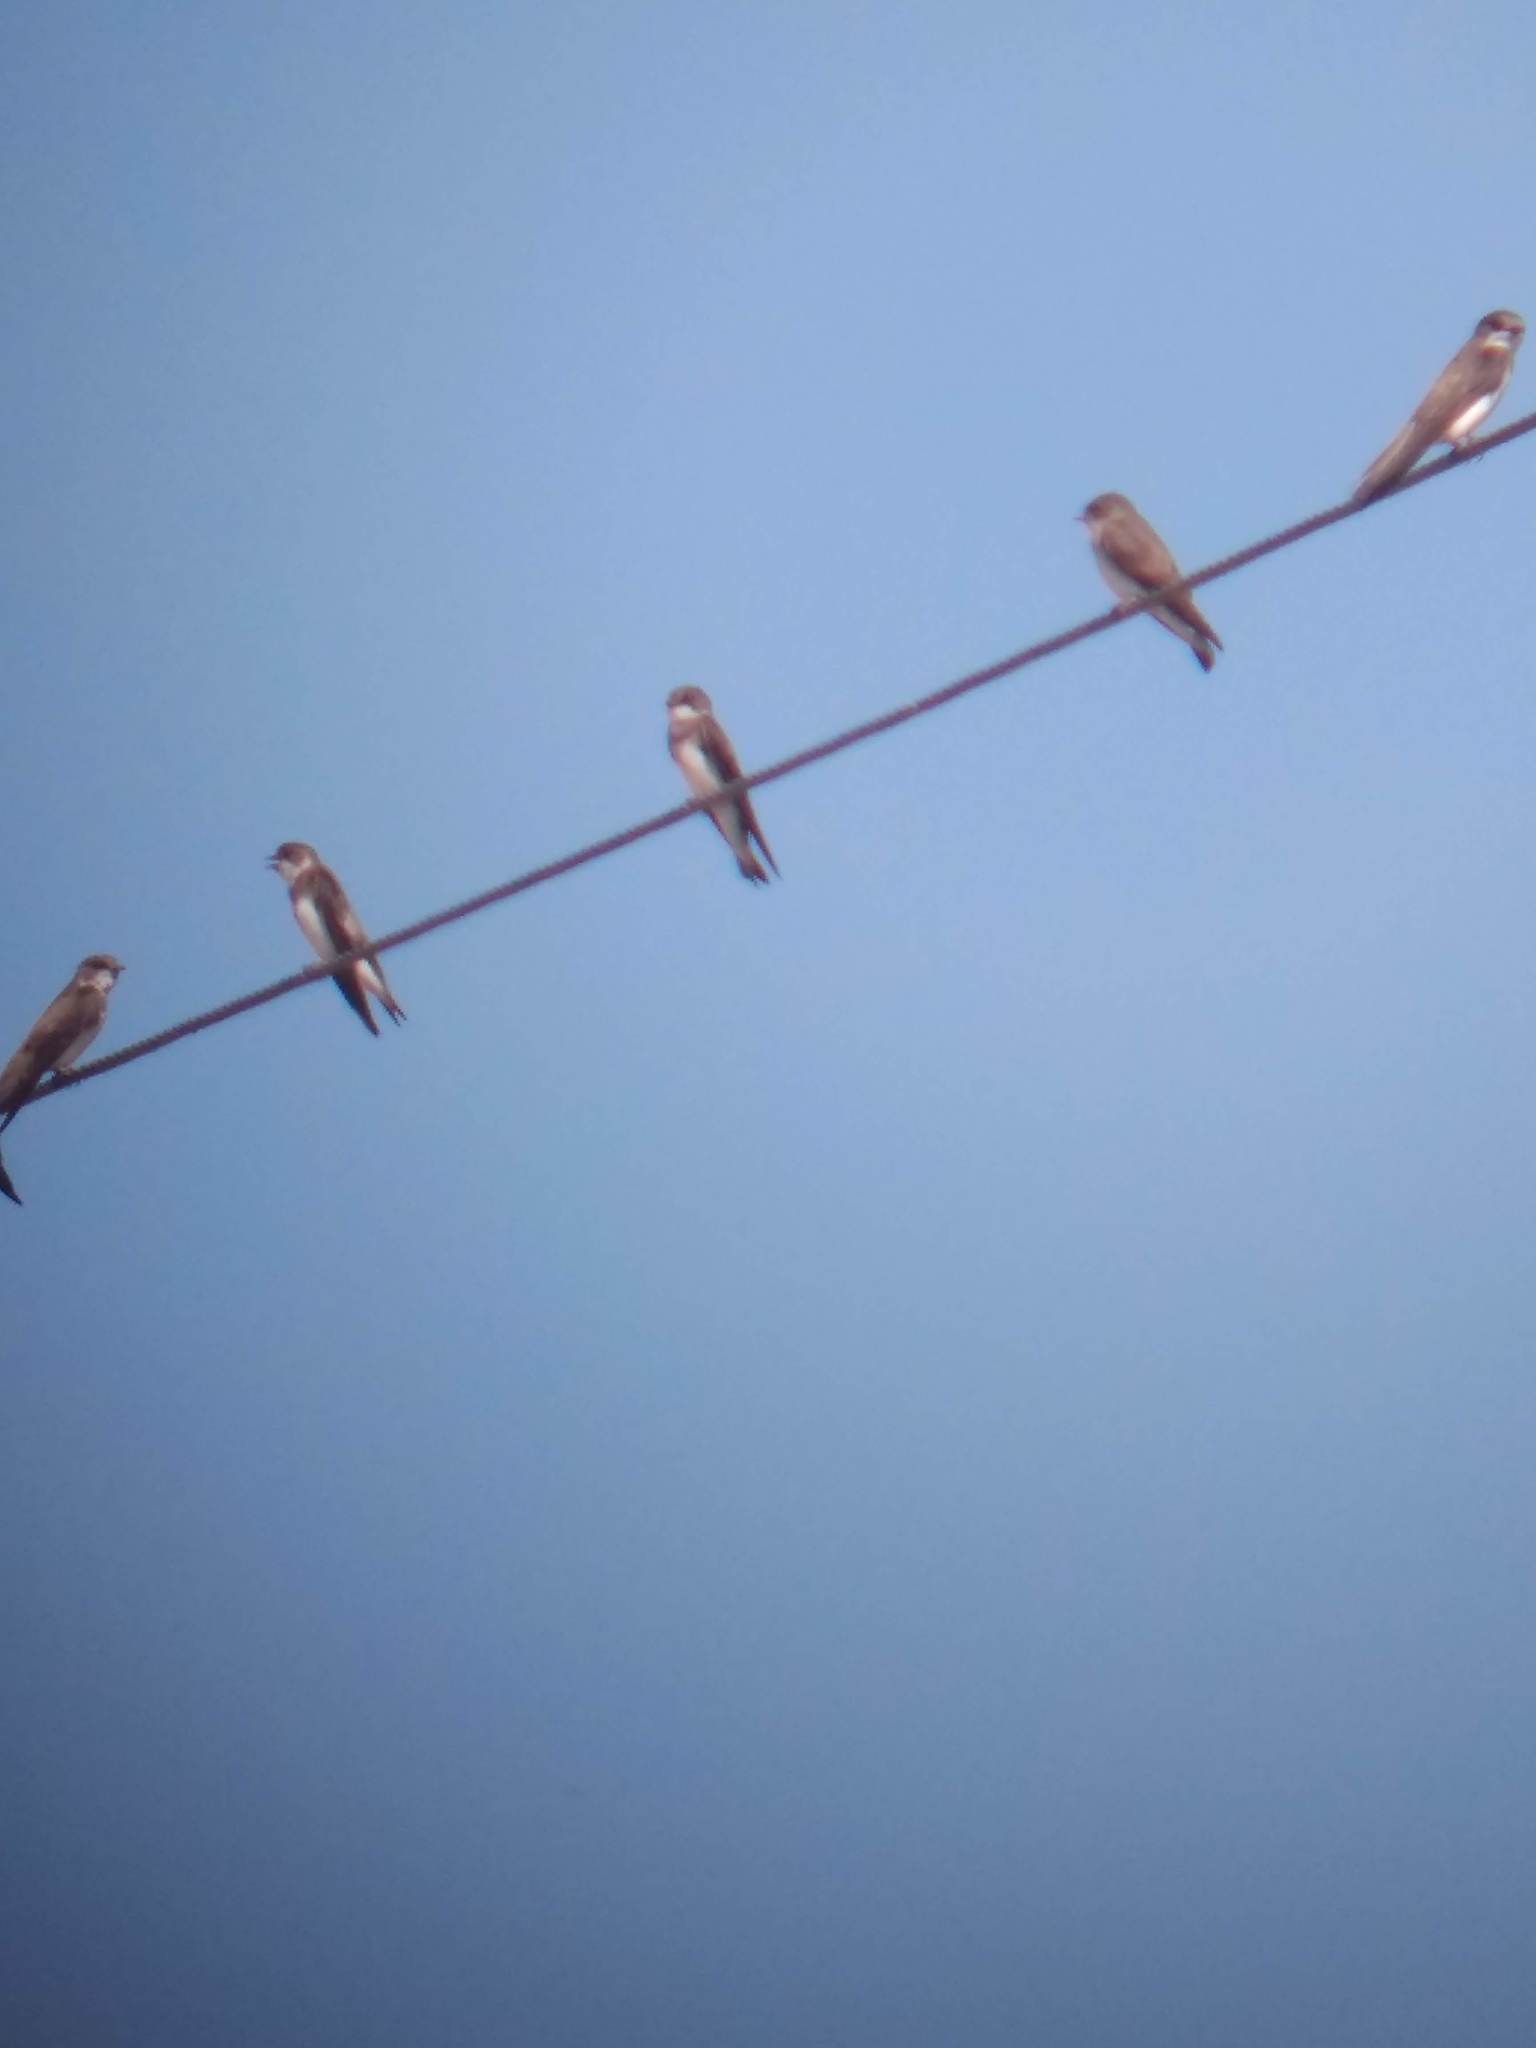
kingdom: Animalia
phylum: Chordata
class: Aves
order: Passeriformes
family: Hirundinidae
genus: Riparia
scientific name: Riparia riparia
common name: Sand martin
